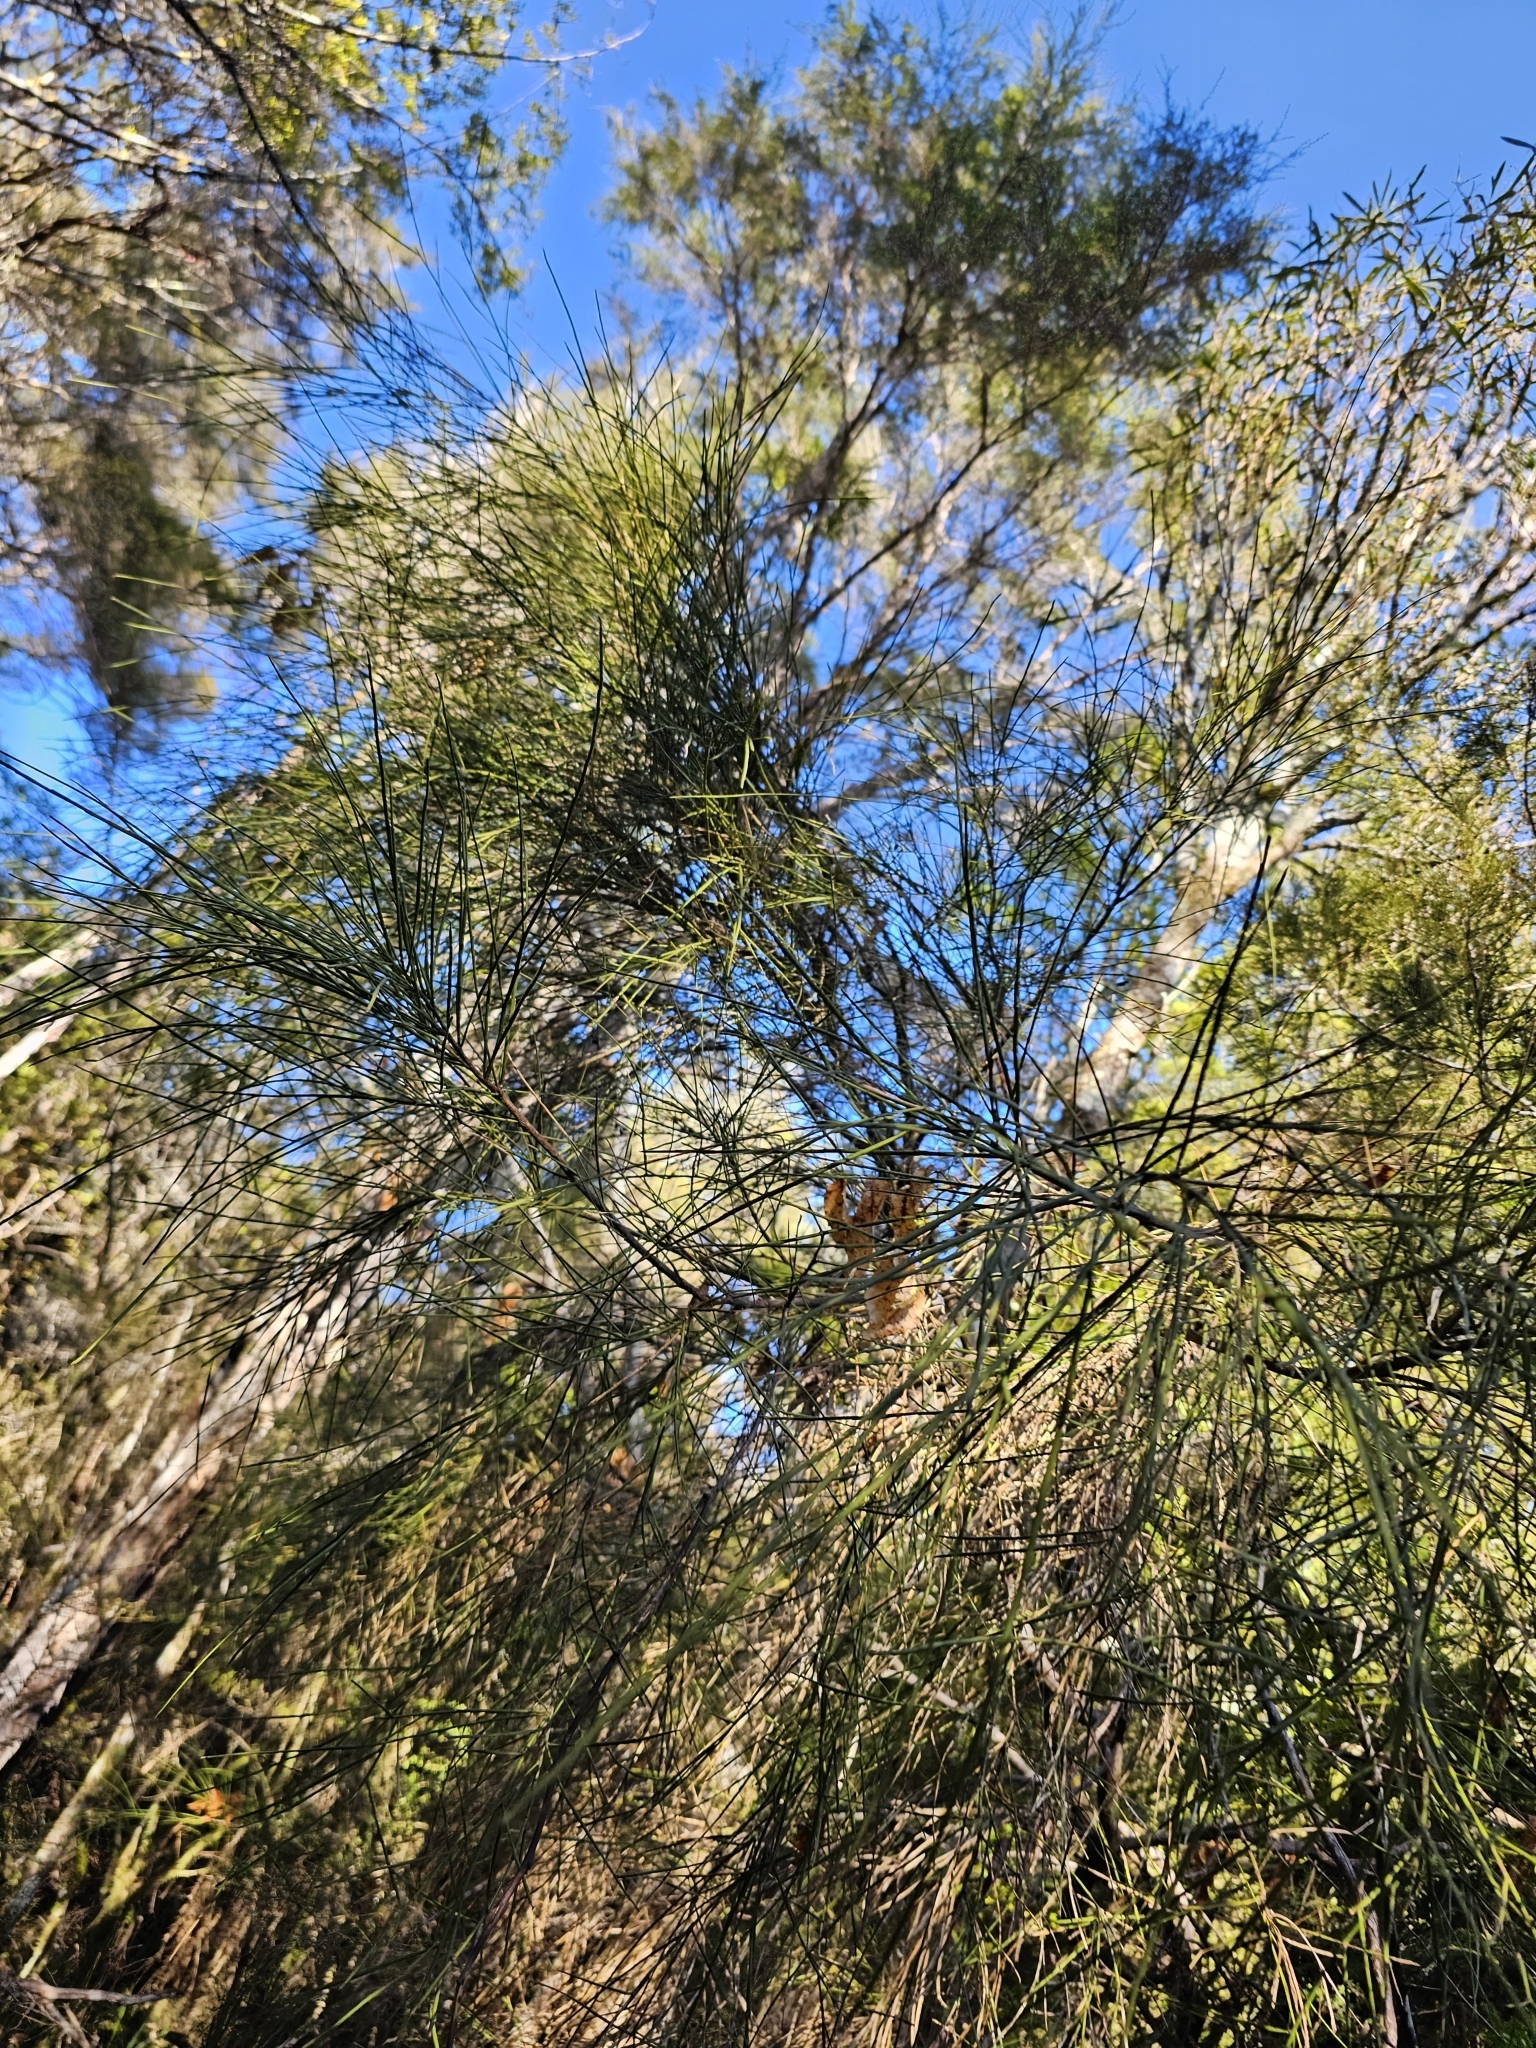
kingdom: Plantae
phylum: Tracheophyta
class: Magnoliopsida
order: Fabales
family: Fabaceae
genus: Carmichaelia
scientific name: Carmichaelia australis
